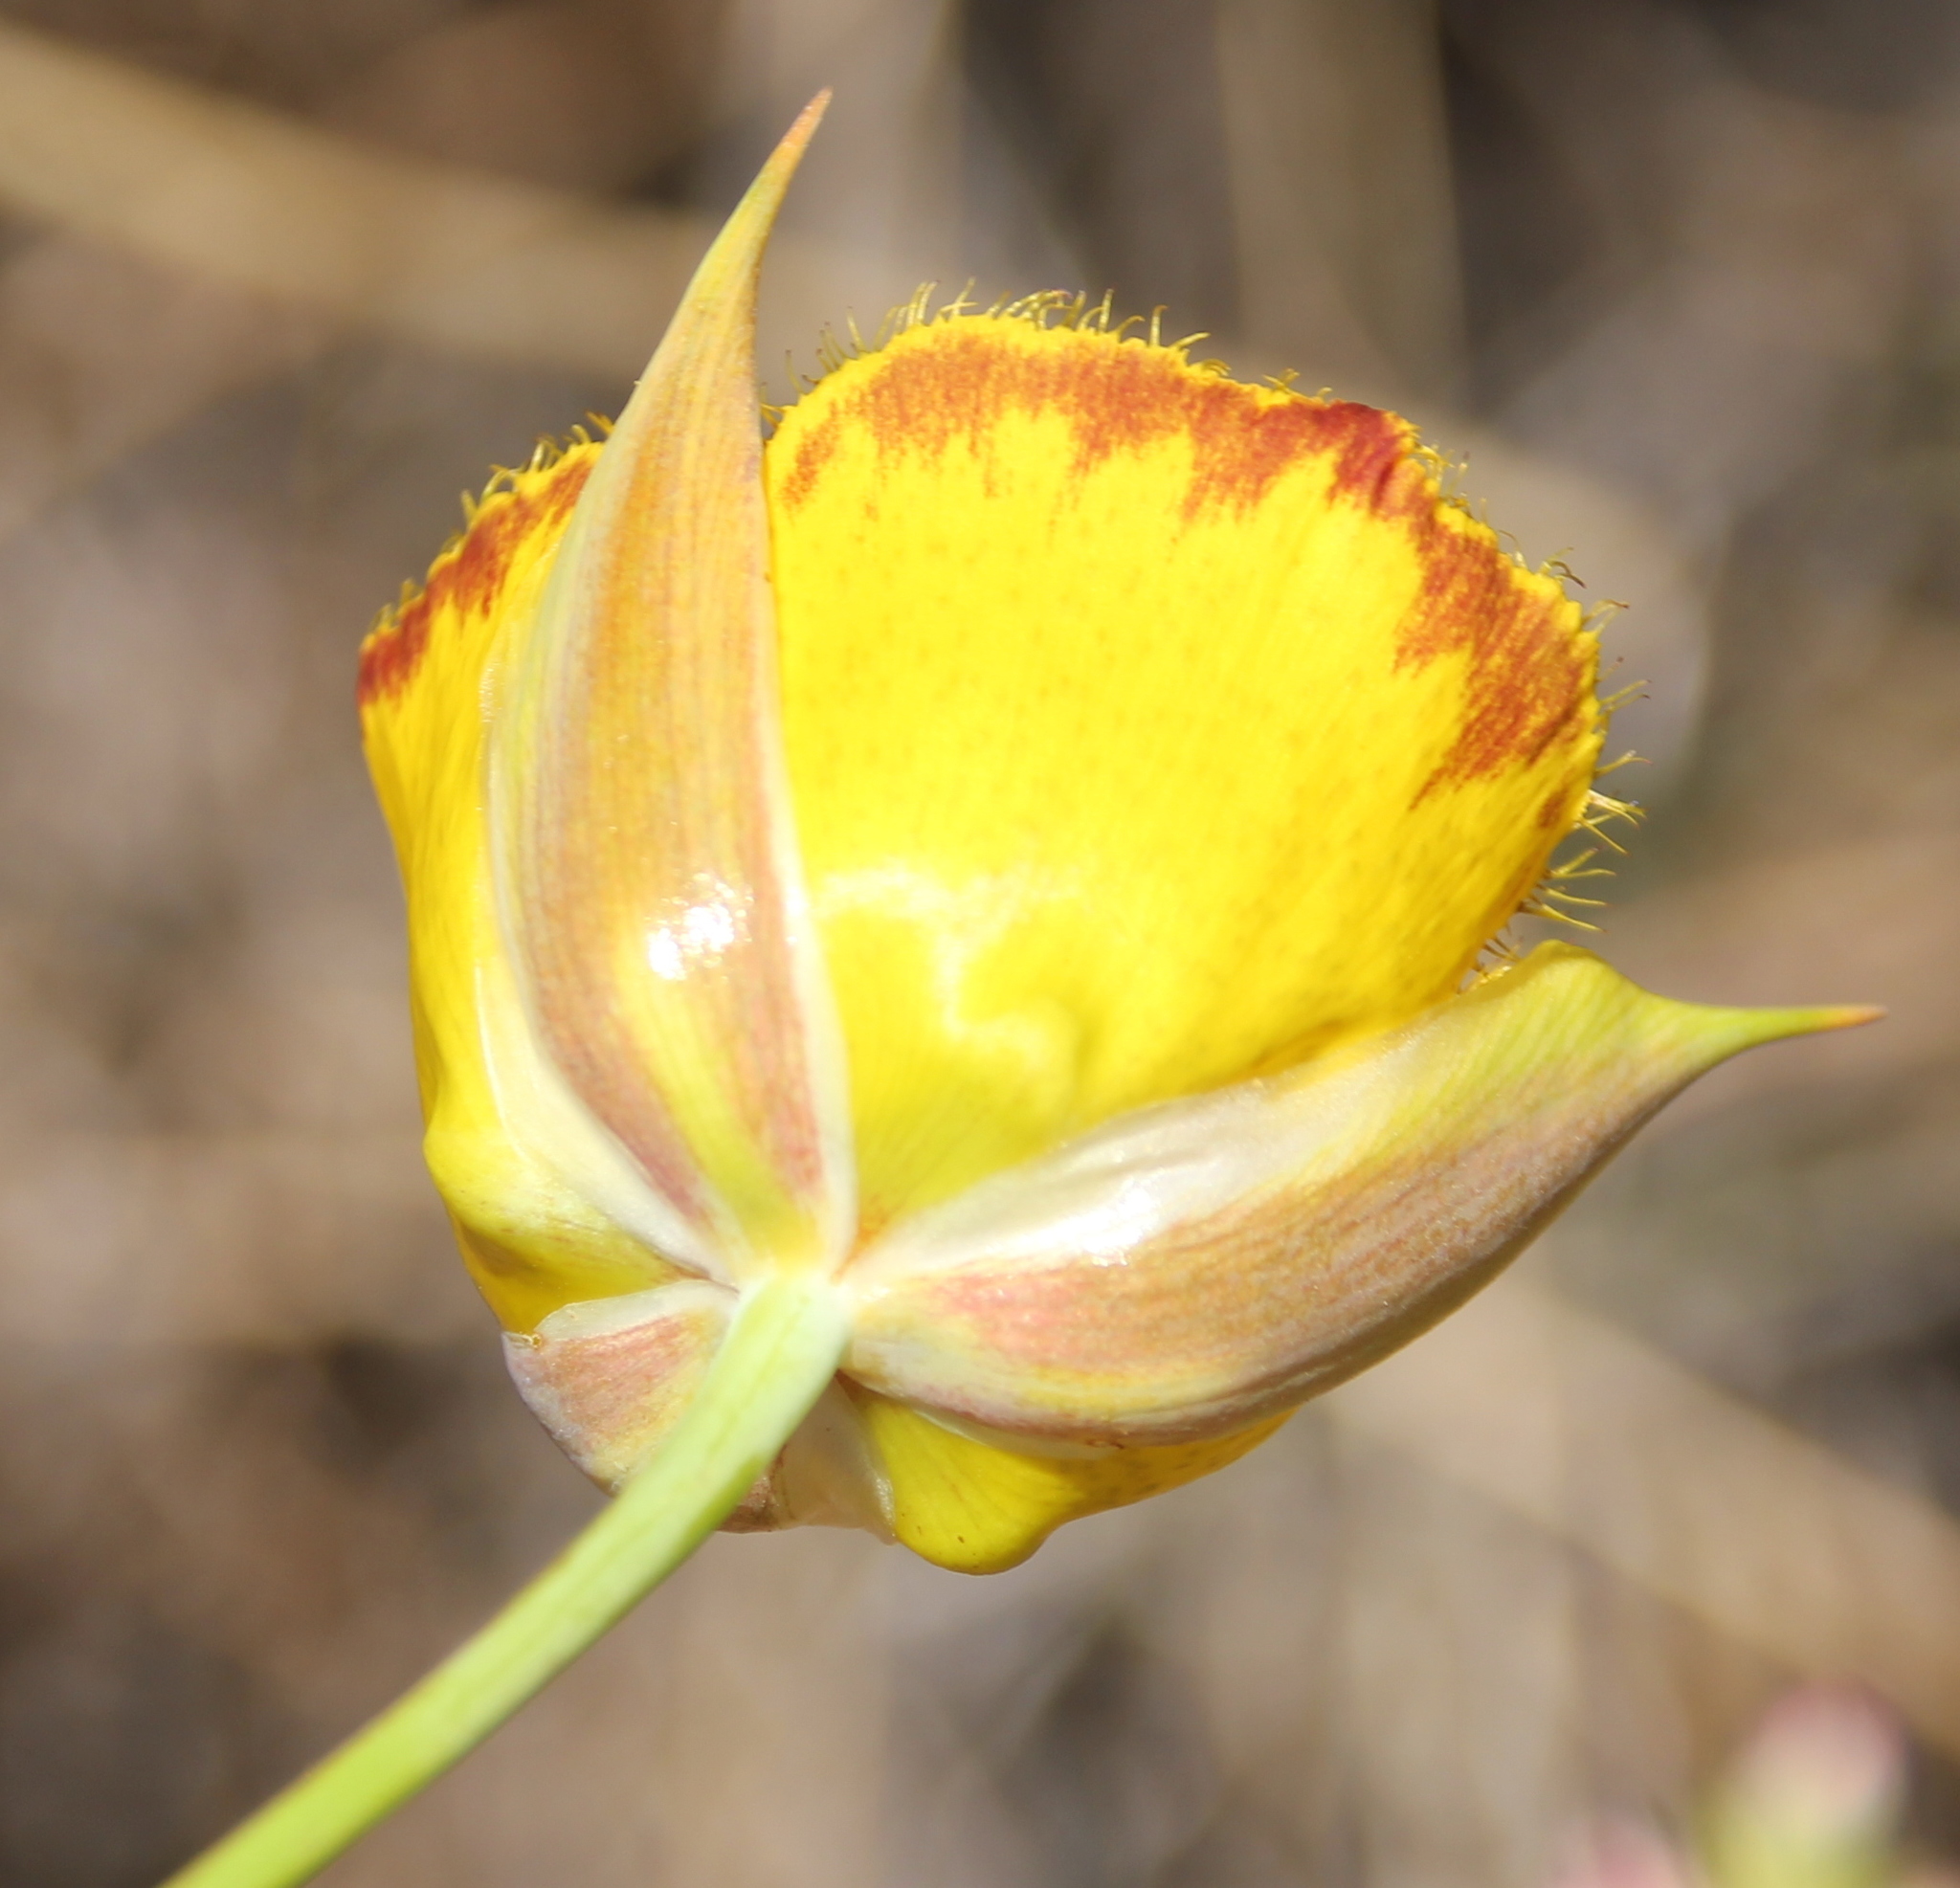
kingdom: Plantae
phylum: Tracheophyta
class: Liliopsida
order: Liliales
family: Liliaceae
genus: Calochortus
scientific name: Calochortus weedii
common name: Weed's mariposa-lily
